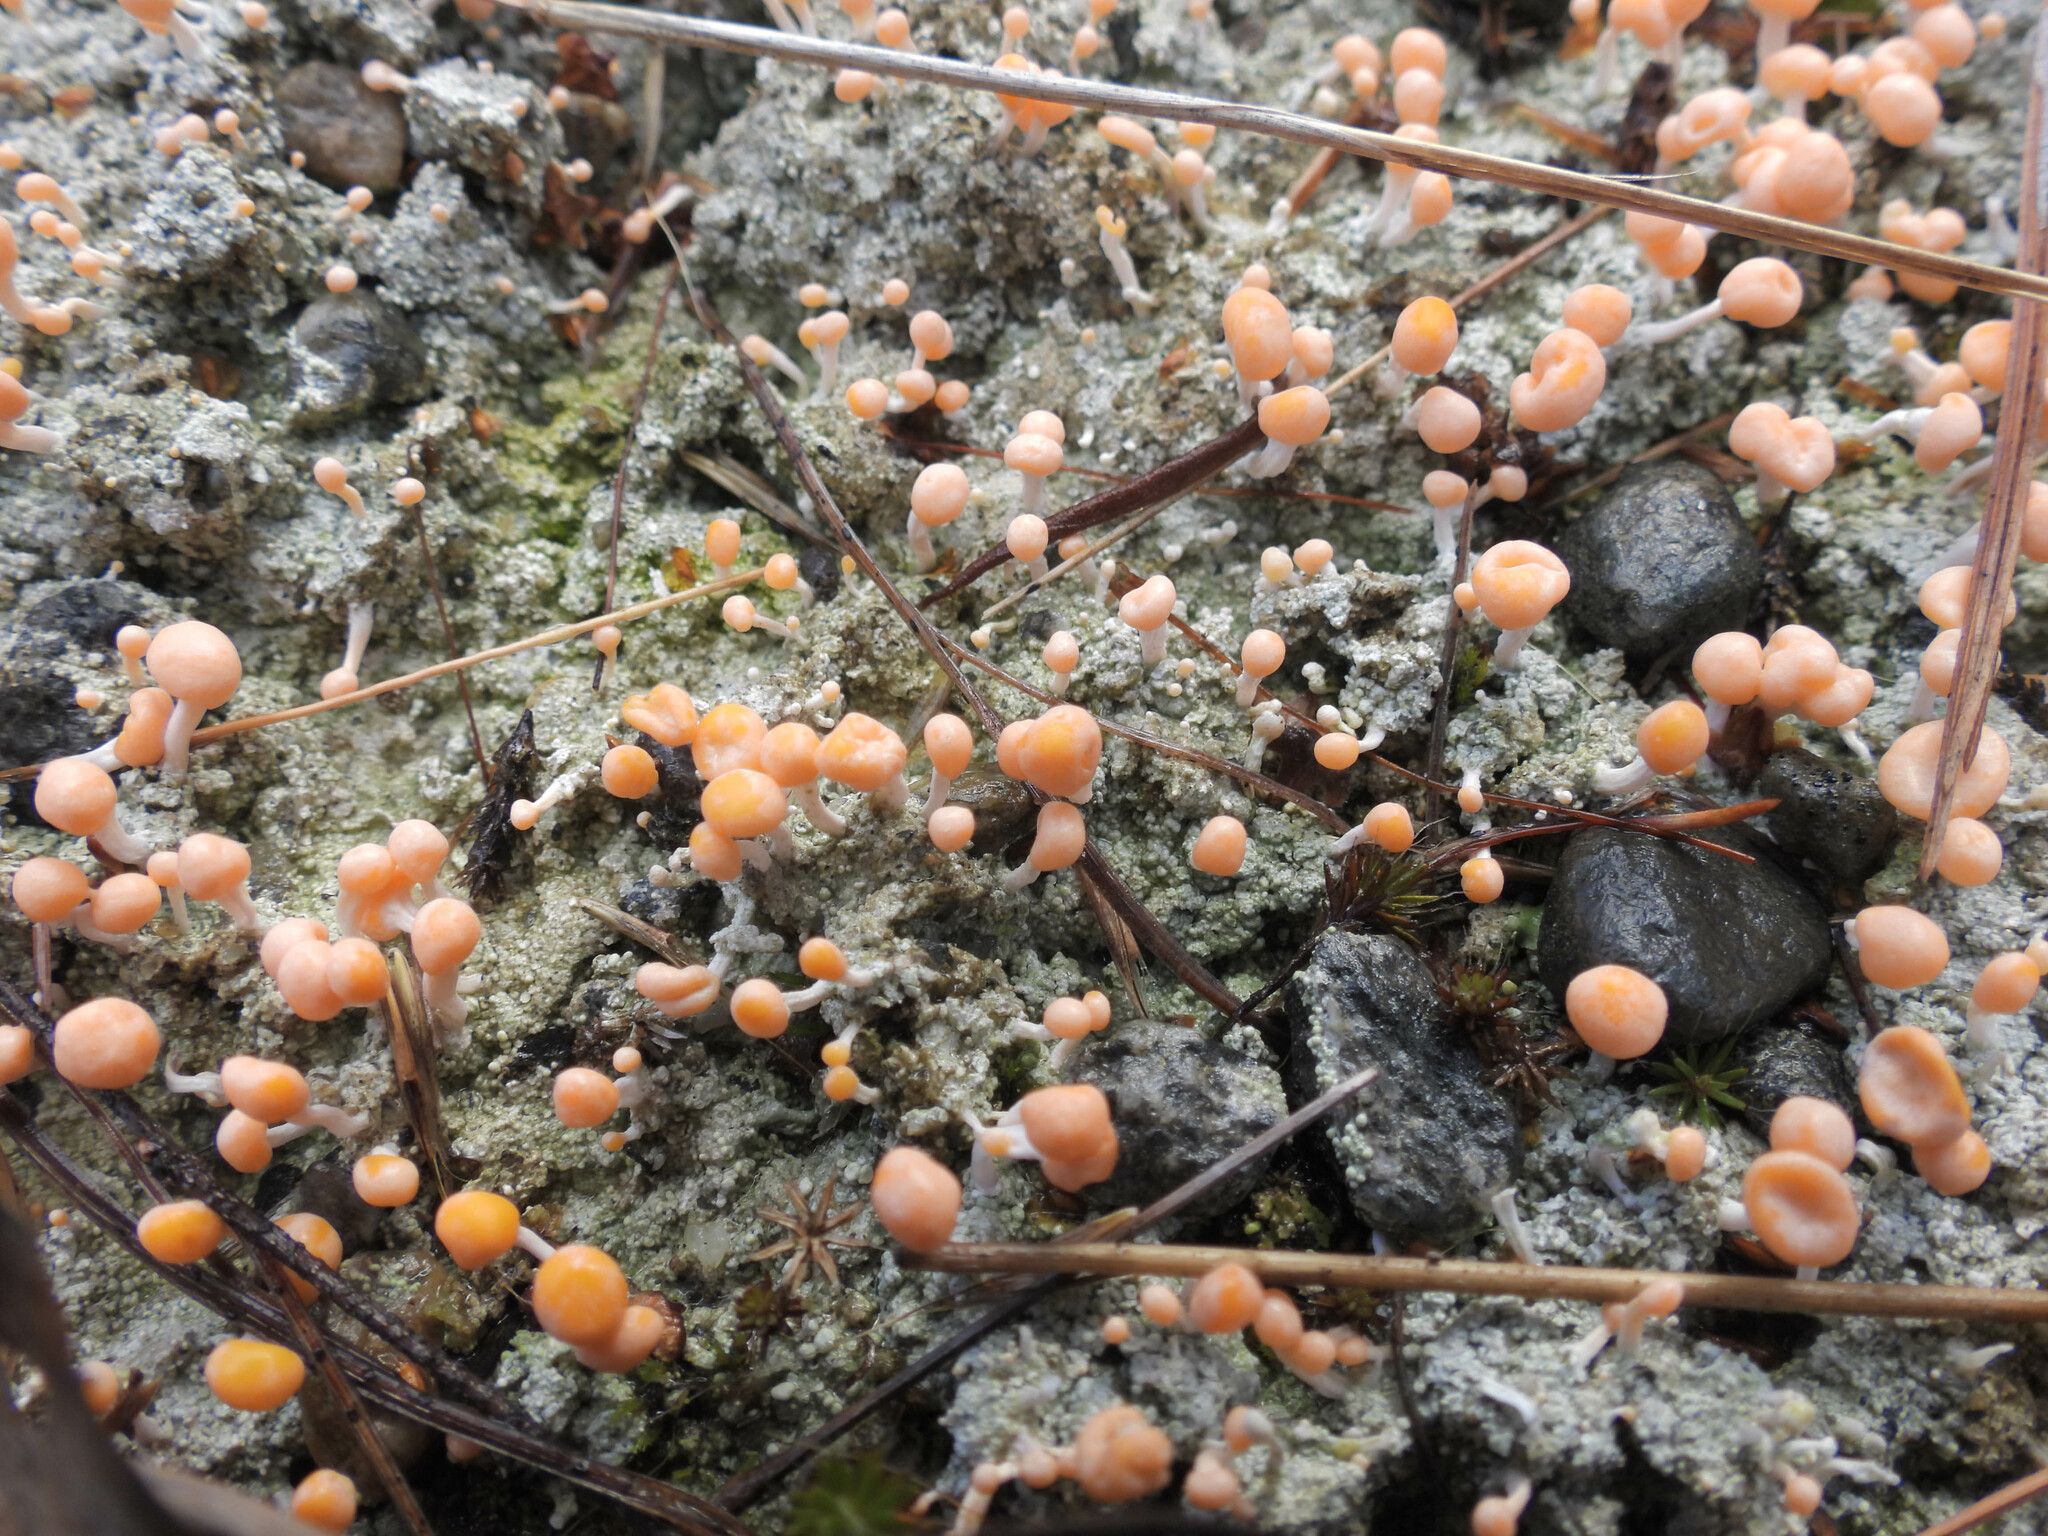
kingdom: Fungi
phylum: Ascomycota
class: Lecanoromycetes
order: Pertusariales
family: Icmadophilaceae
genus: Dibaeis
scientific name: Dibaeis baeomyces
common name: Pink earth lichen
